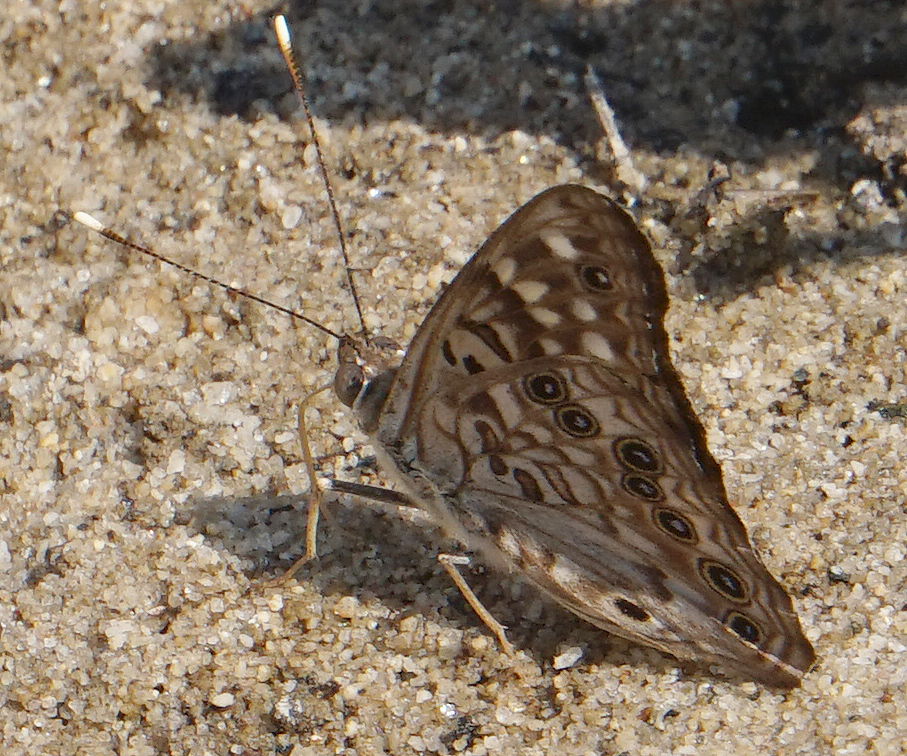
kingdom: Animalia
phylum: Arthropoda
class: Insecta
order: Lepidoptera
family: Nymphalidae
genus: Asterocampa
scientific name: Asterocampa celtis
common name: Hackberry emperor
